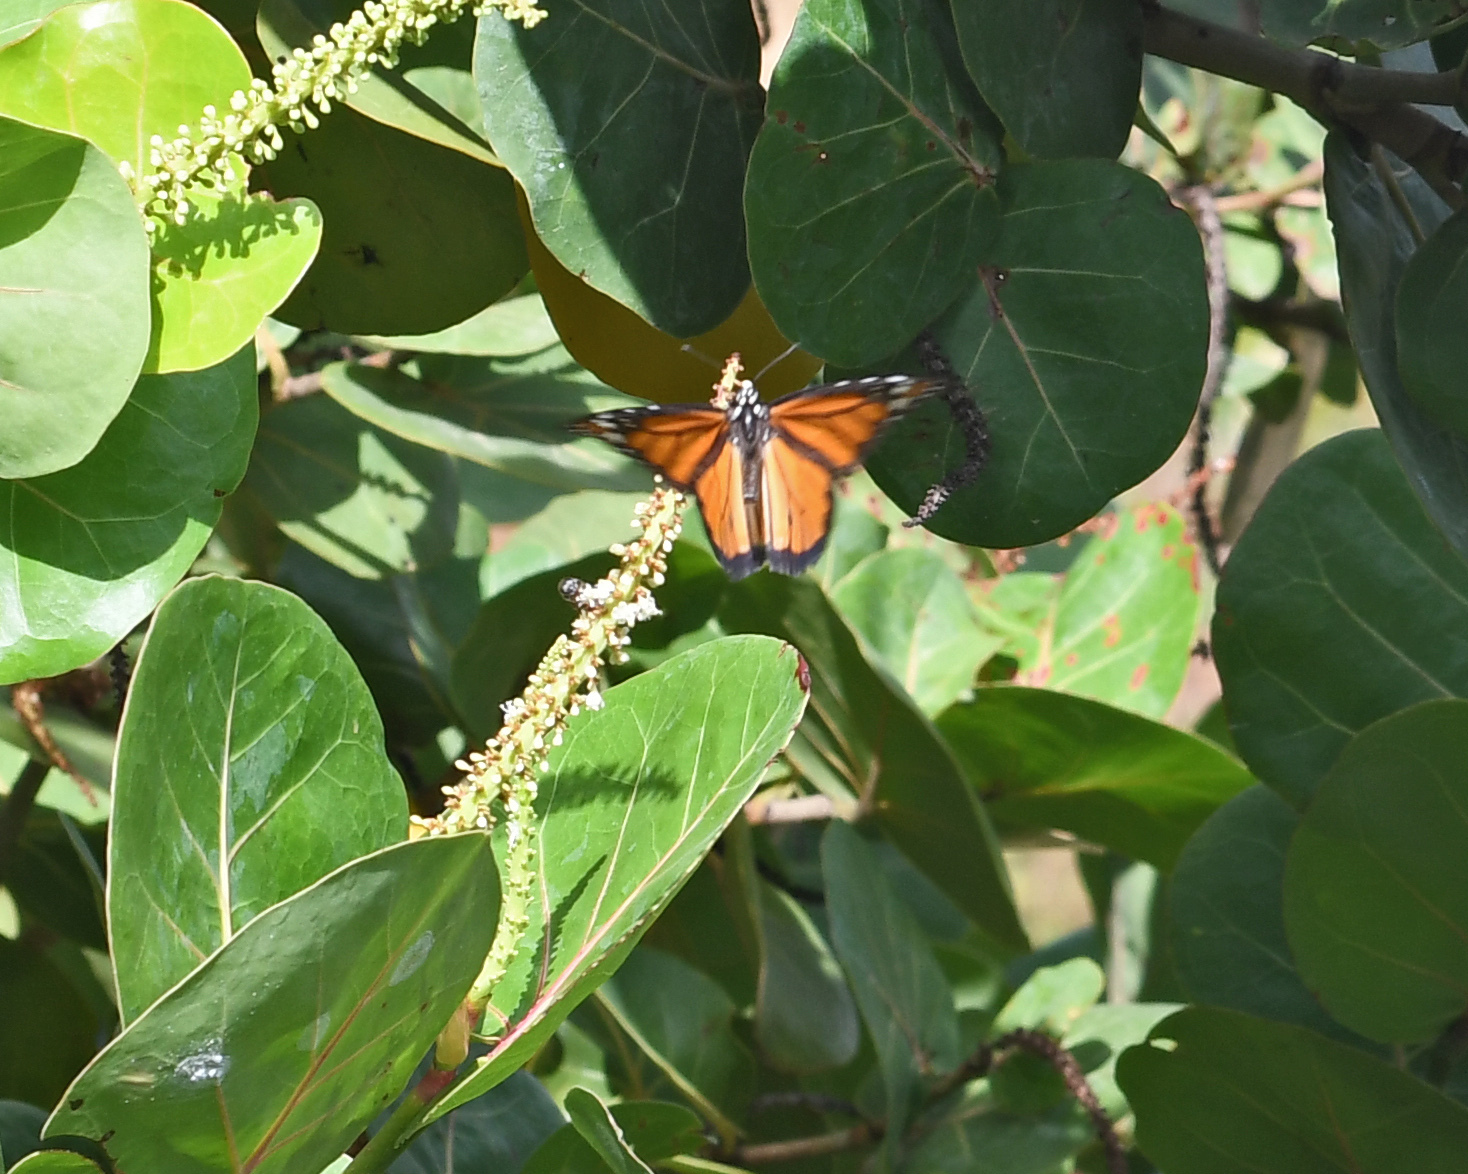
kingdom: Animalia
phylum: Arthropoda
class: Insecta
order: Lepidoptera
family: Nymphalidae
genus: Danaus
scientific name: Danaus plexippus
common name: Monarch
